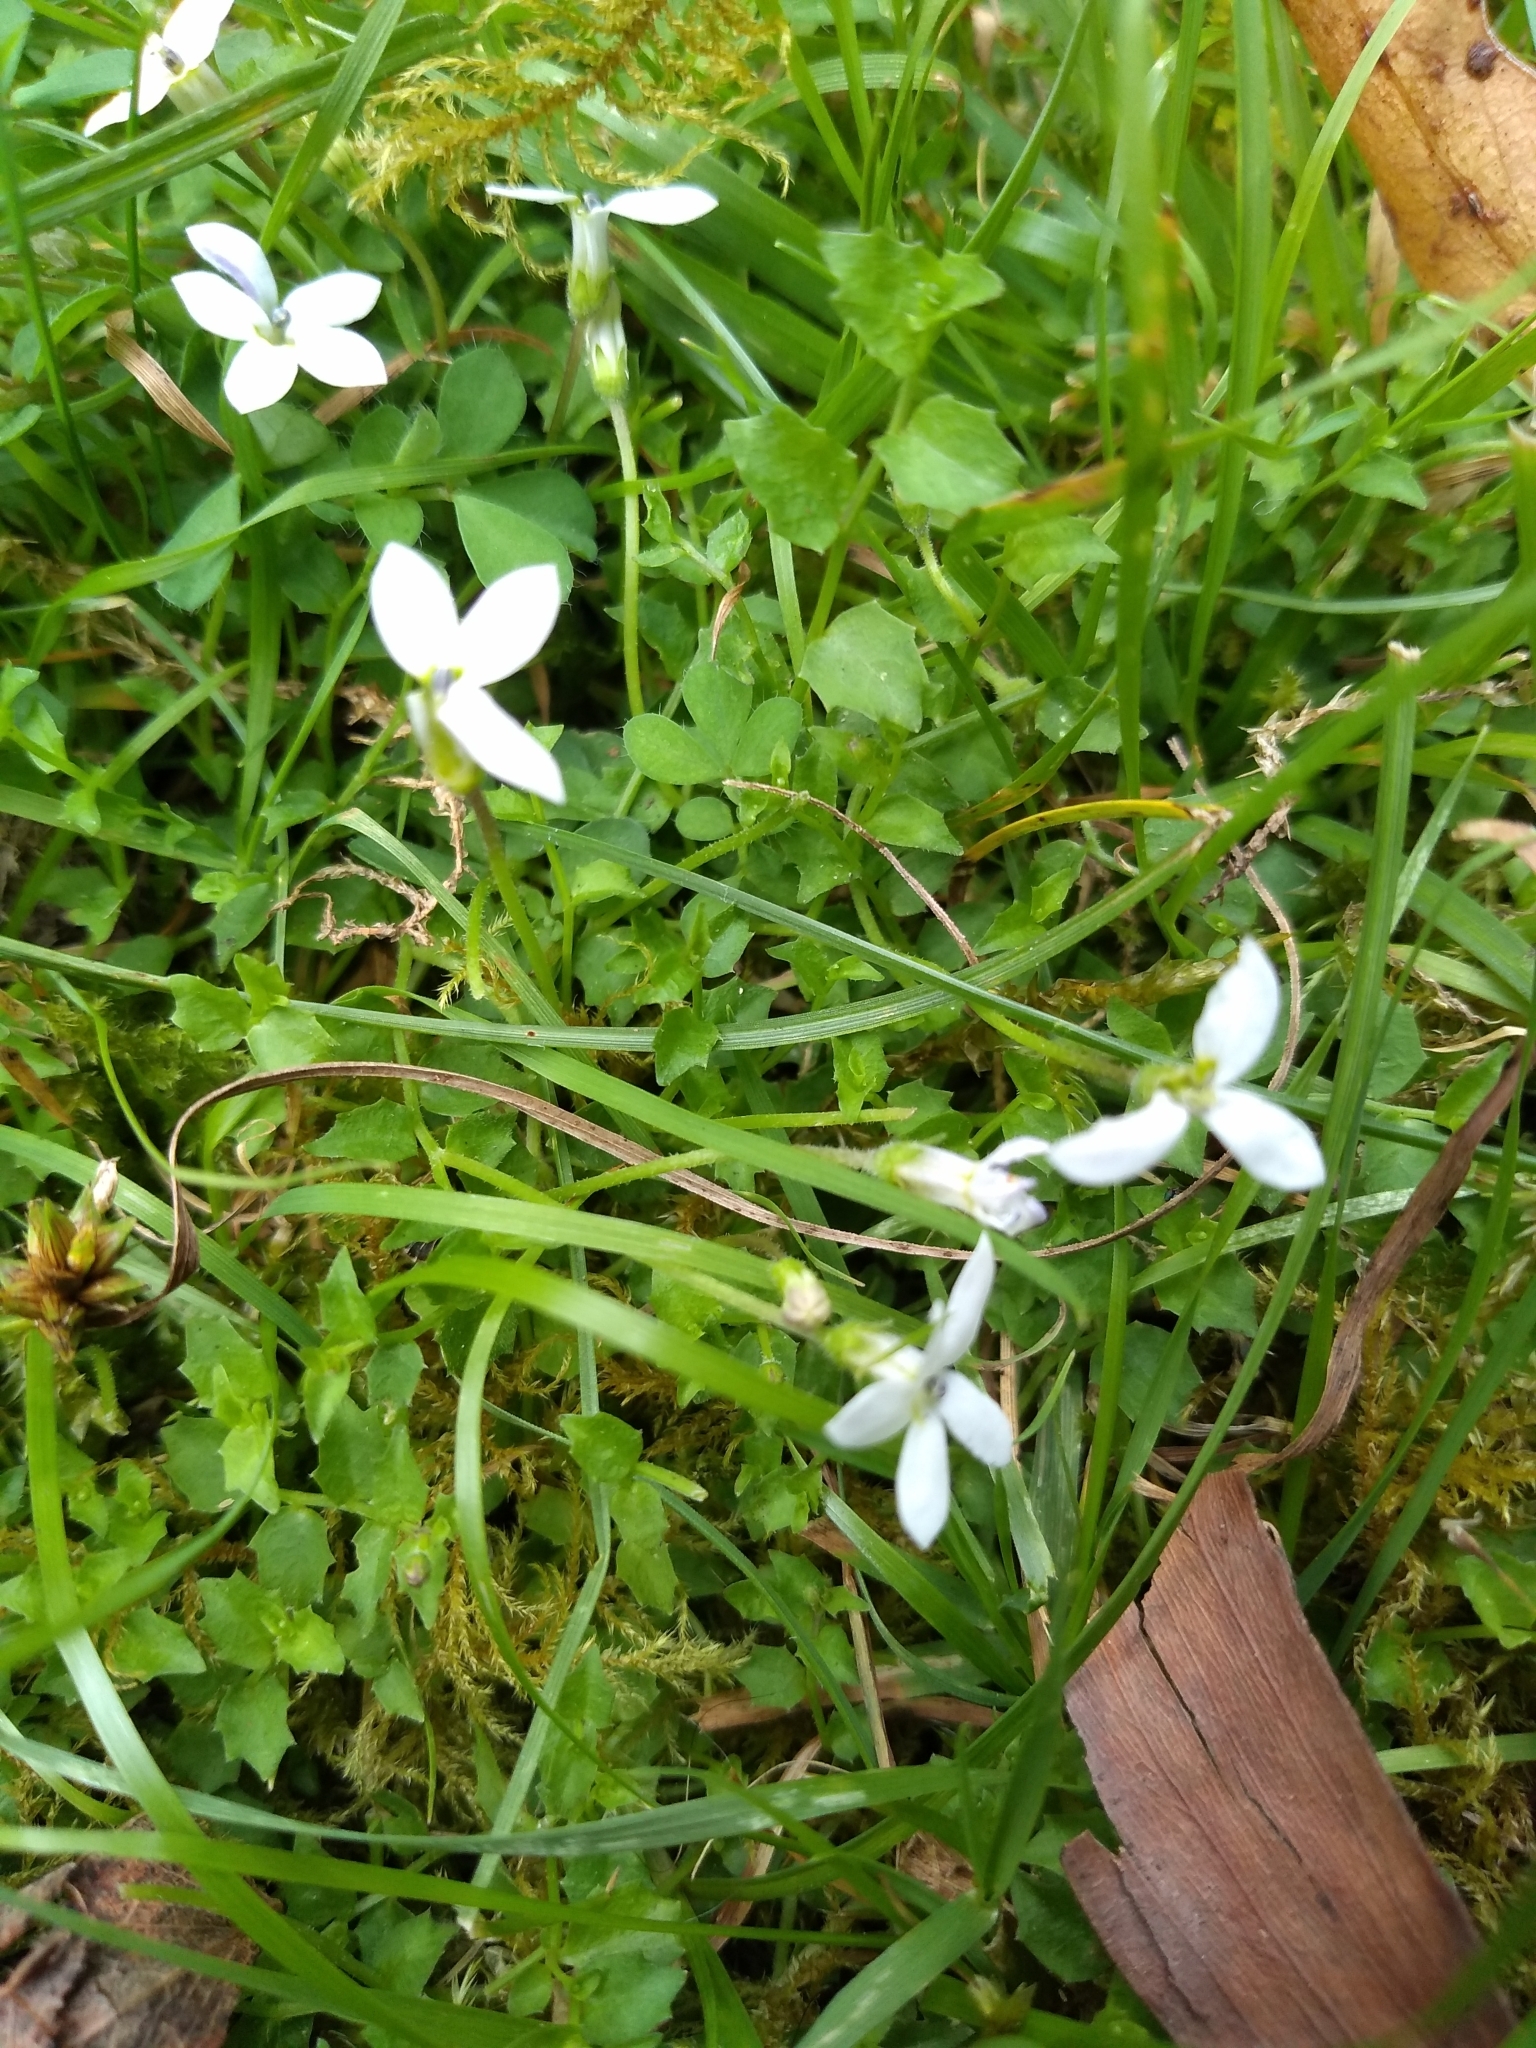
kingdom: Plantae
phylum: Tracheophyta
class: Magnoliopsida
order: Asterales
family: Campanulaceae
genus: Lobelia
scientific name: Lobelia pedunculata
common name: Matted pratia
